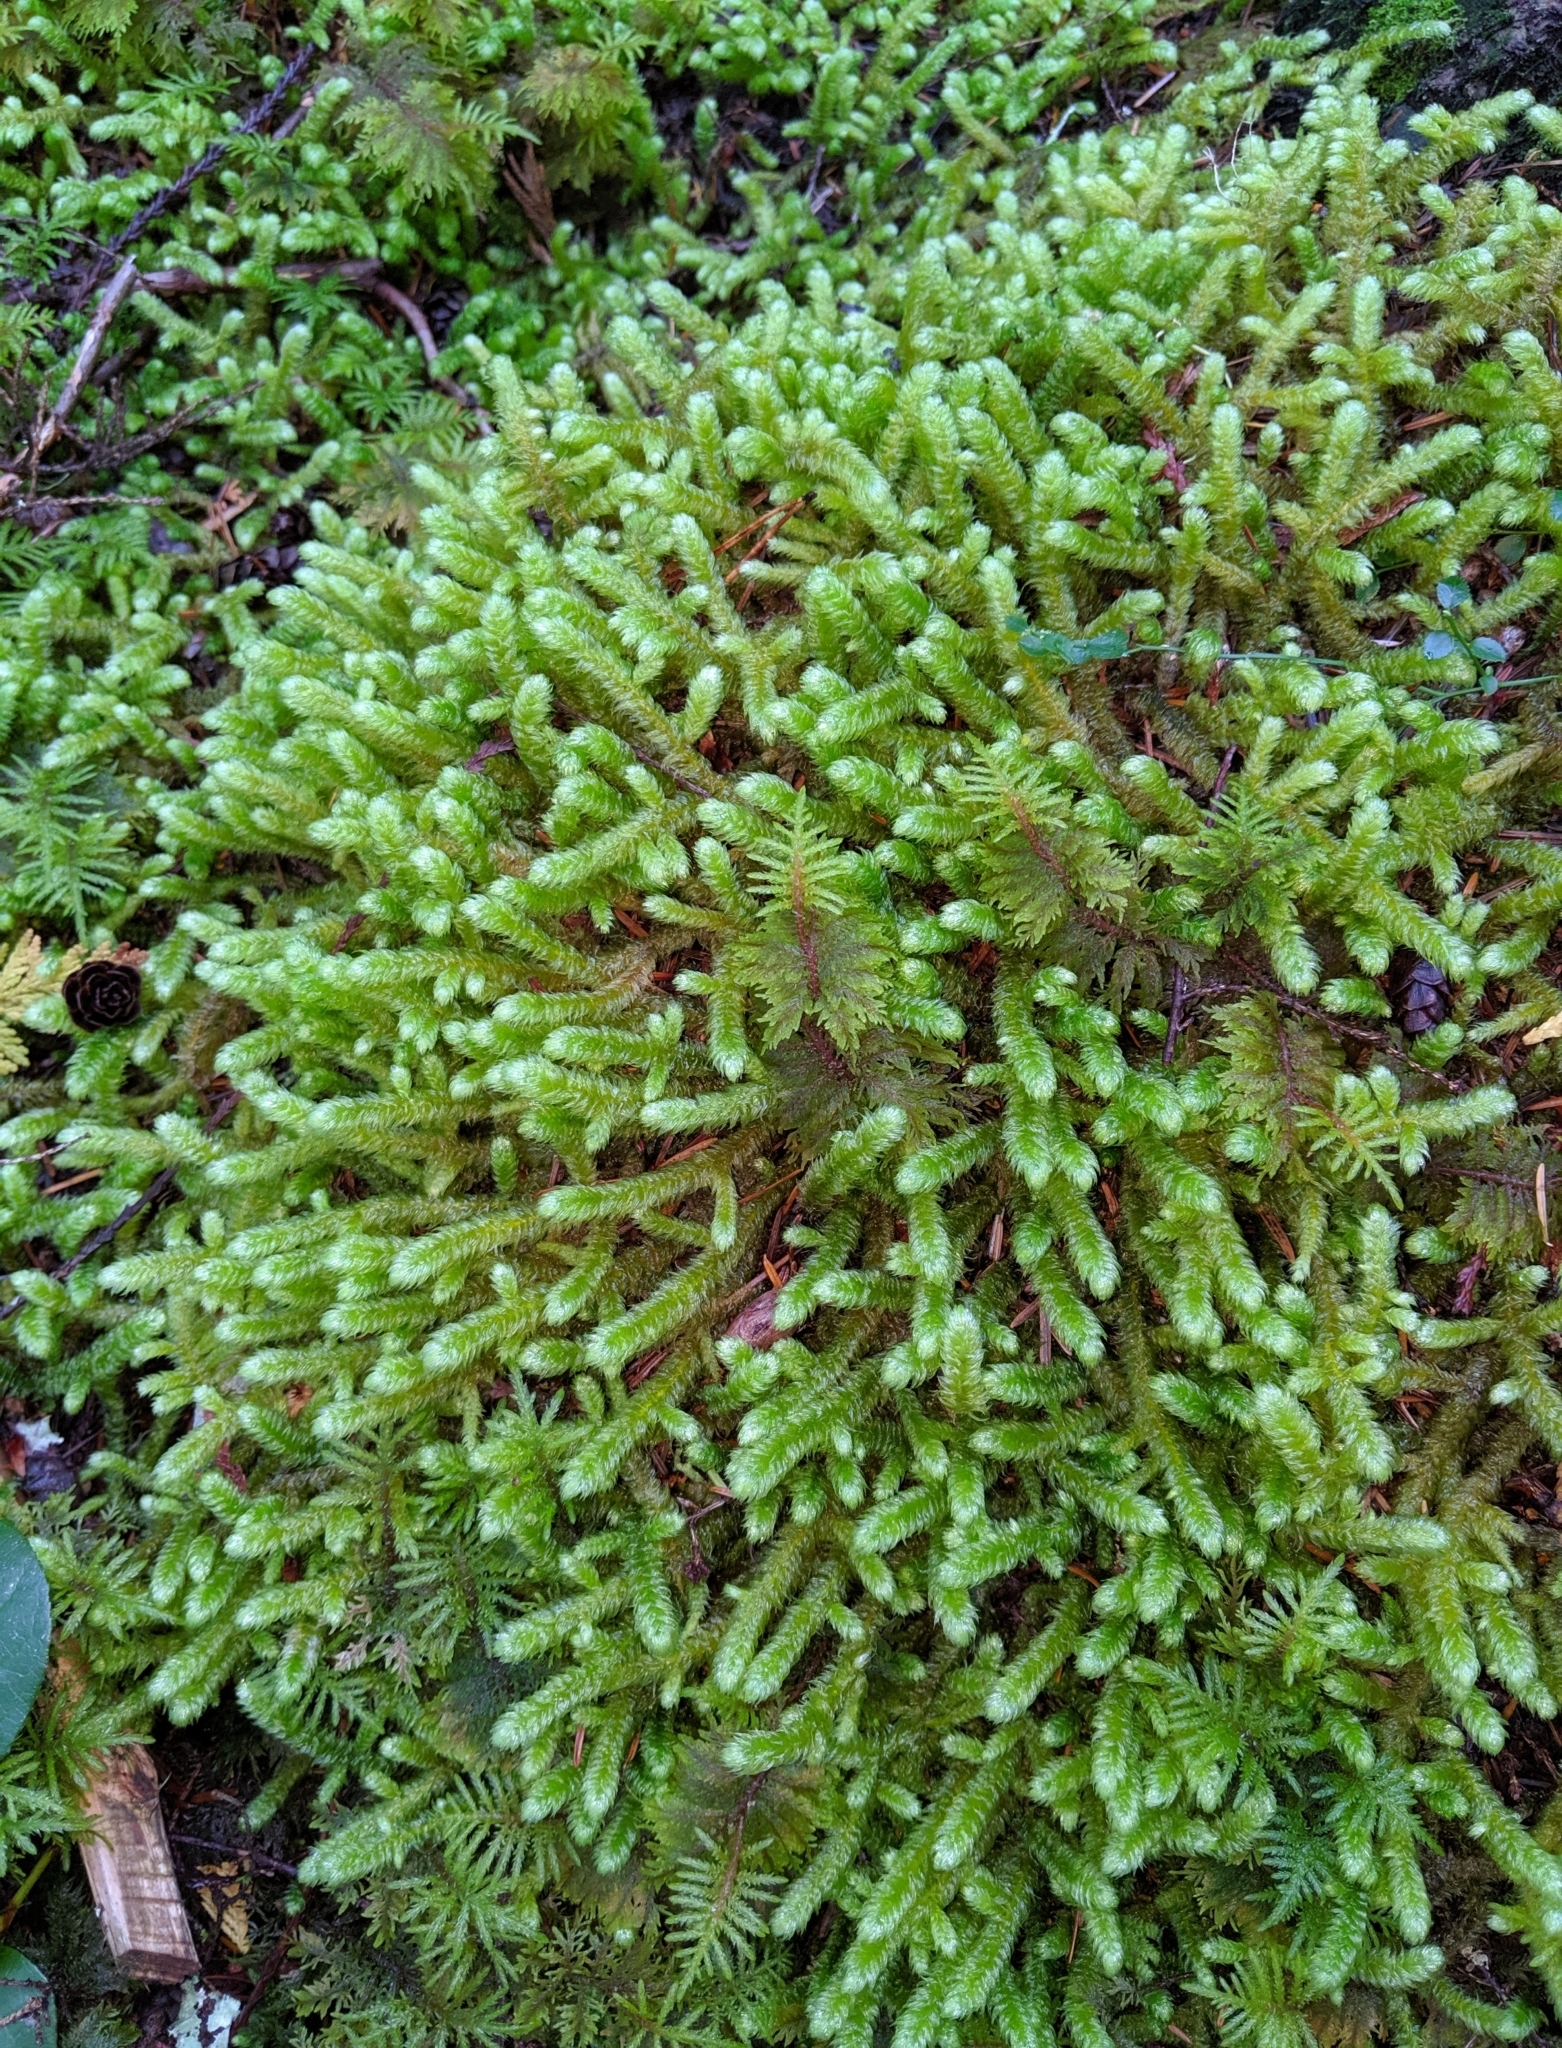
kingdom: Plantae
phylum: Bryophyta
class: Bryopsida
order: Hypnales
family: Hylocomiaceae
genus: Rhytidiopsis
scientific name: Rhytidiopsis robusta
